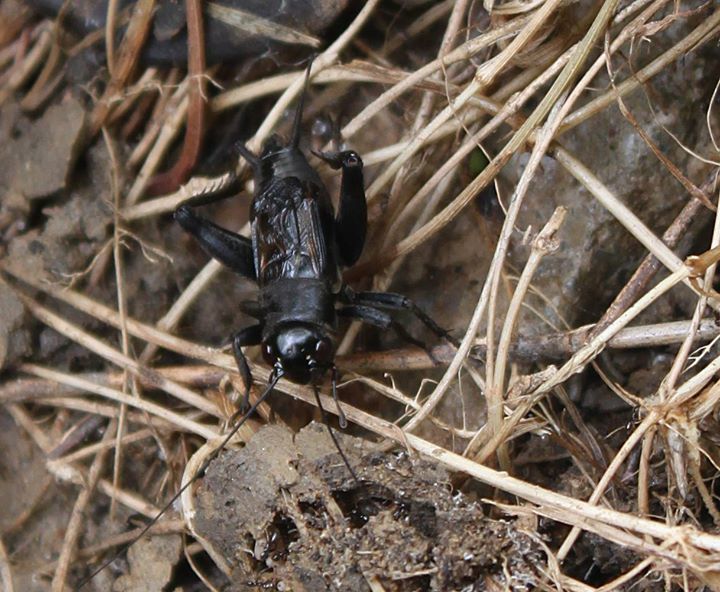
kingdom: Animalia
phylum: Arthropoda
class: Insecta
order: Orthoptera
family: Gryllidae
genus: Melanogryllus
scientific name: Melanogryllus desertus
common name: Desert cricket
